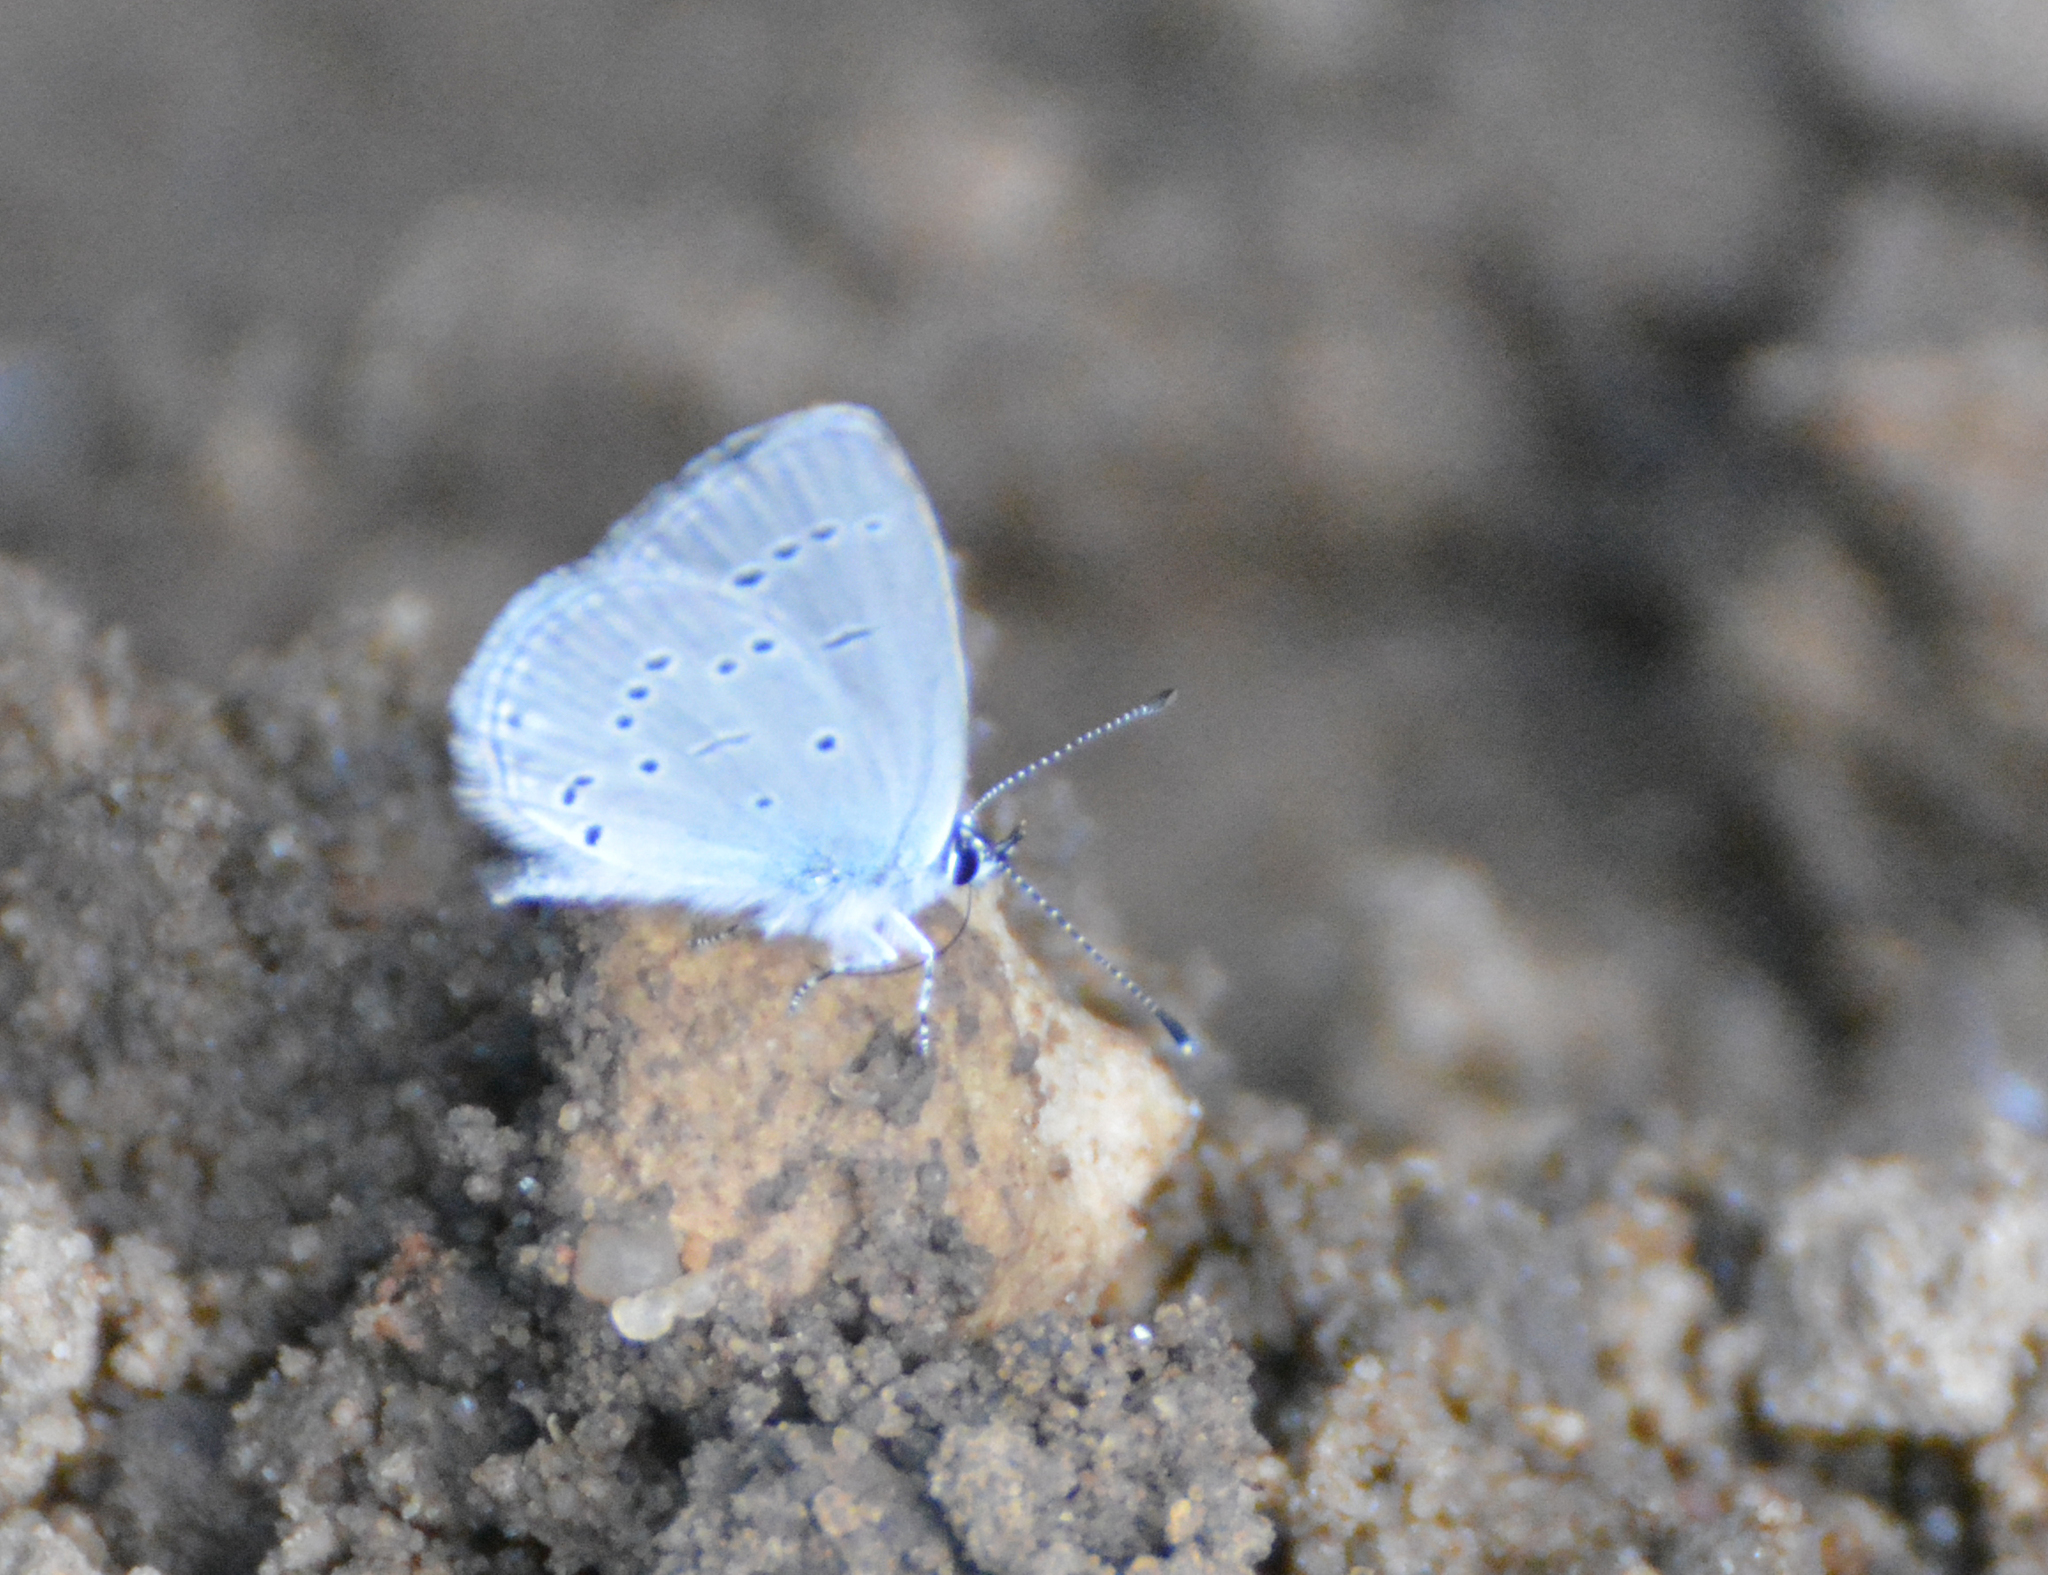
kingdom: Animalia
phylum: Arthropoda
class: Insecta
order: Lepidoptera
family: Lycaenidae
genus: Cupido
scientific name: Cupido minimus
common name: Small blue
